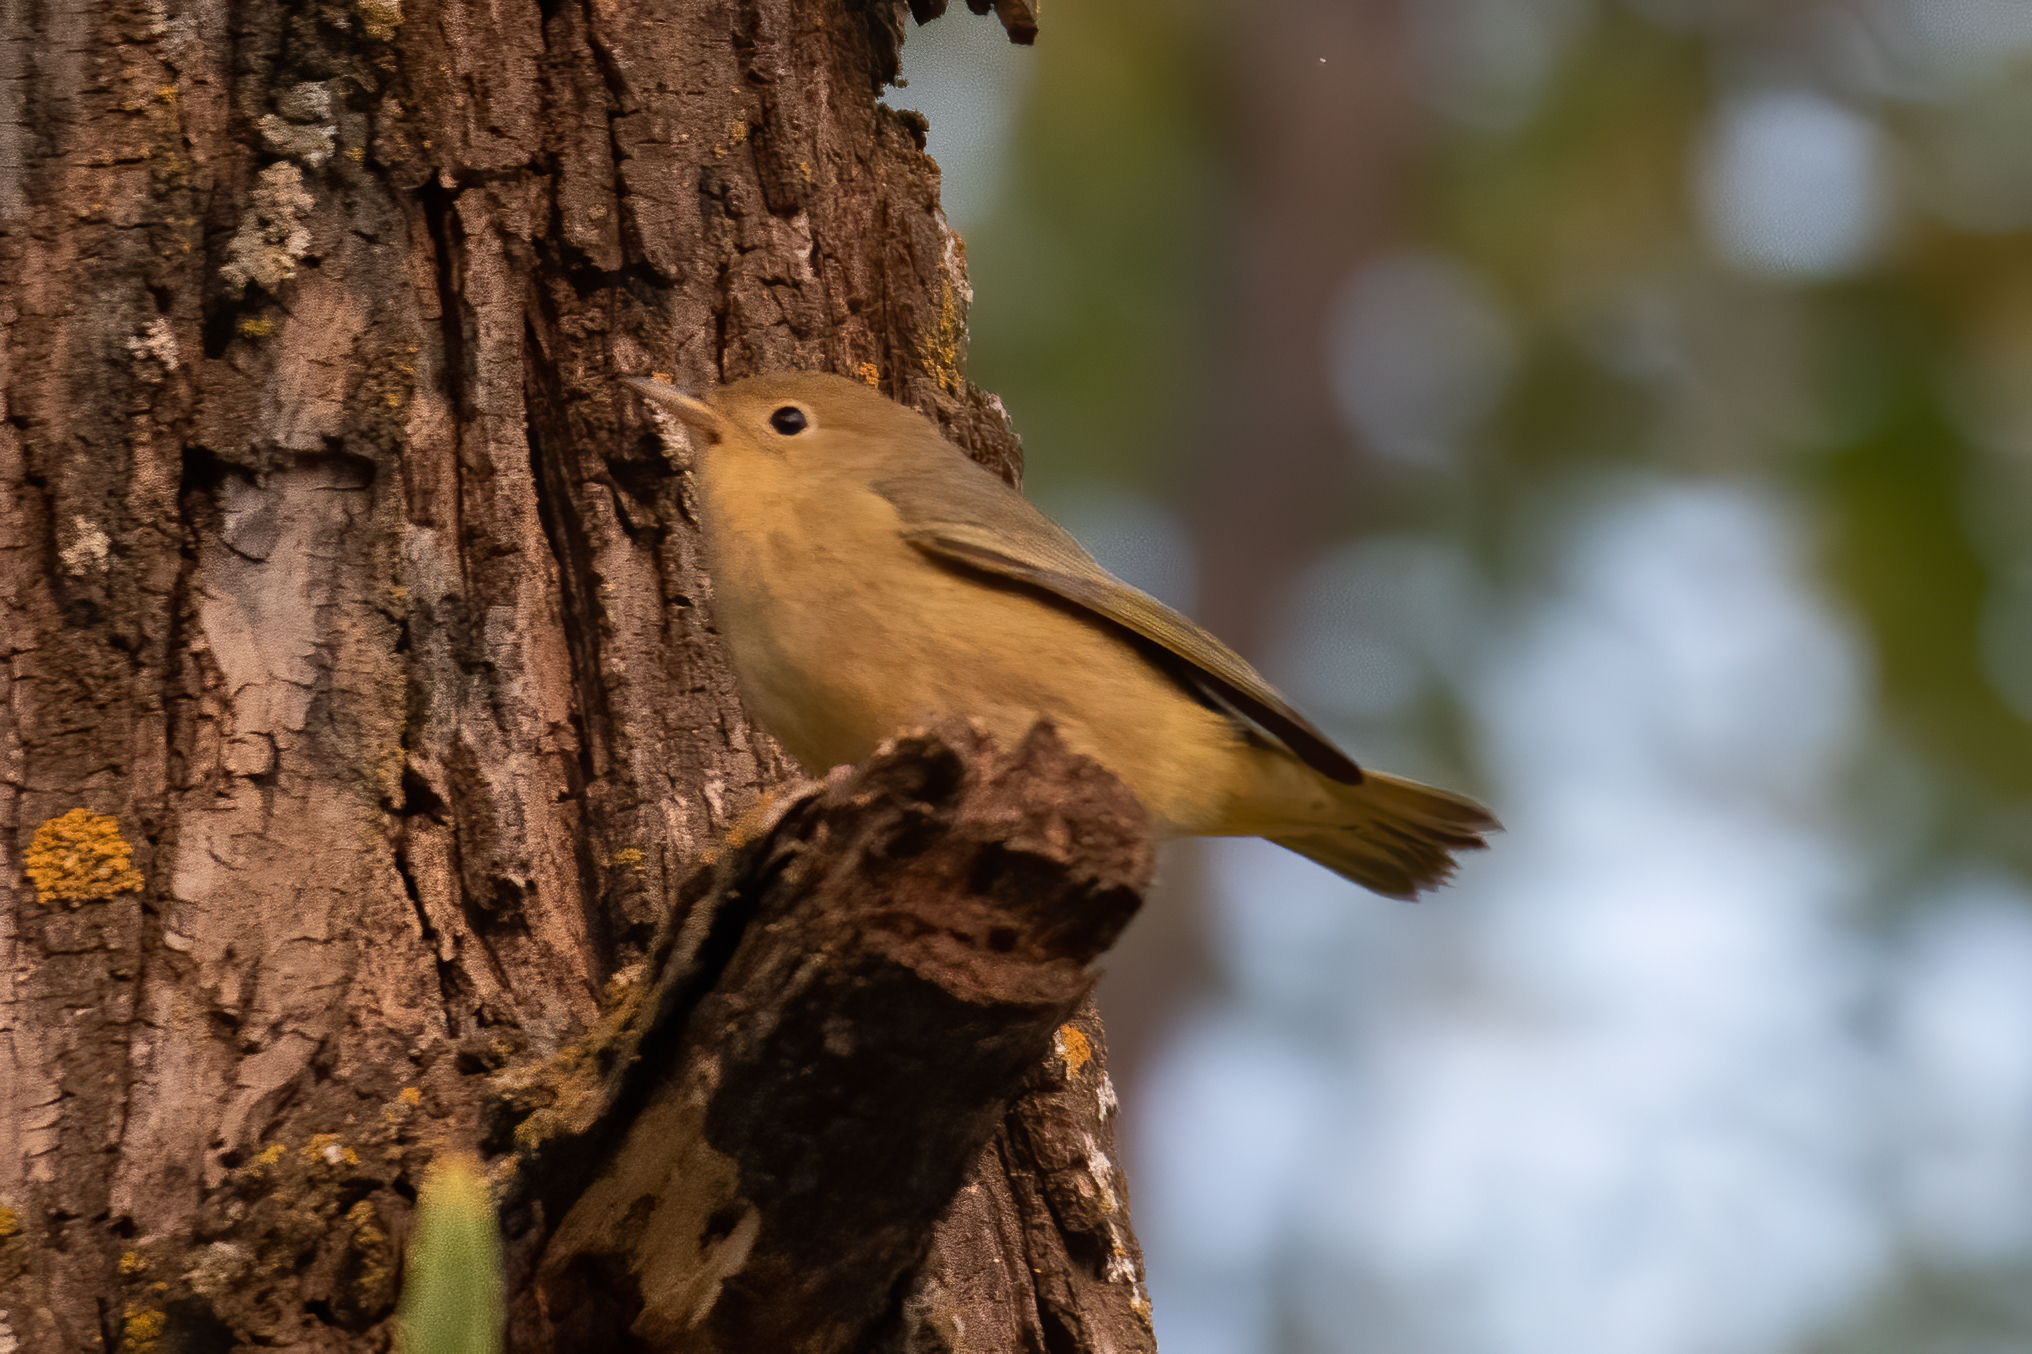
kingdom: Animalia
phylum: Chordata
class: Aves
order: Passeriformes
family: Parulidae
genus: Setophaga
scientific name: Setophaga petechia
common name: Yellow warbler
